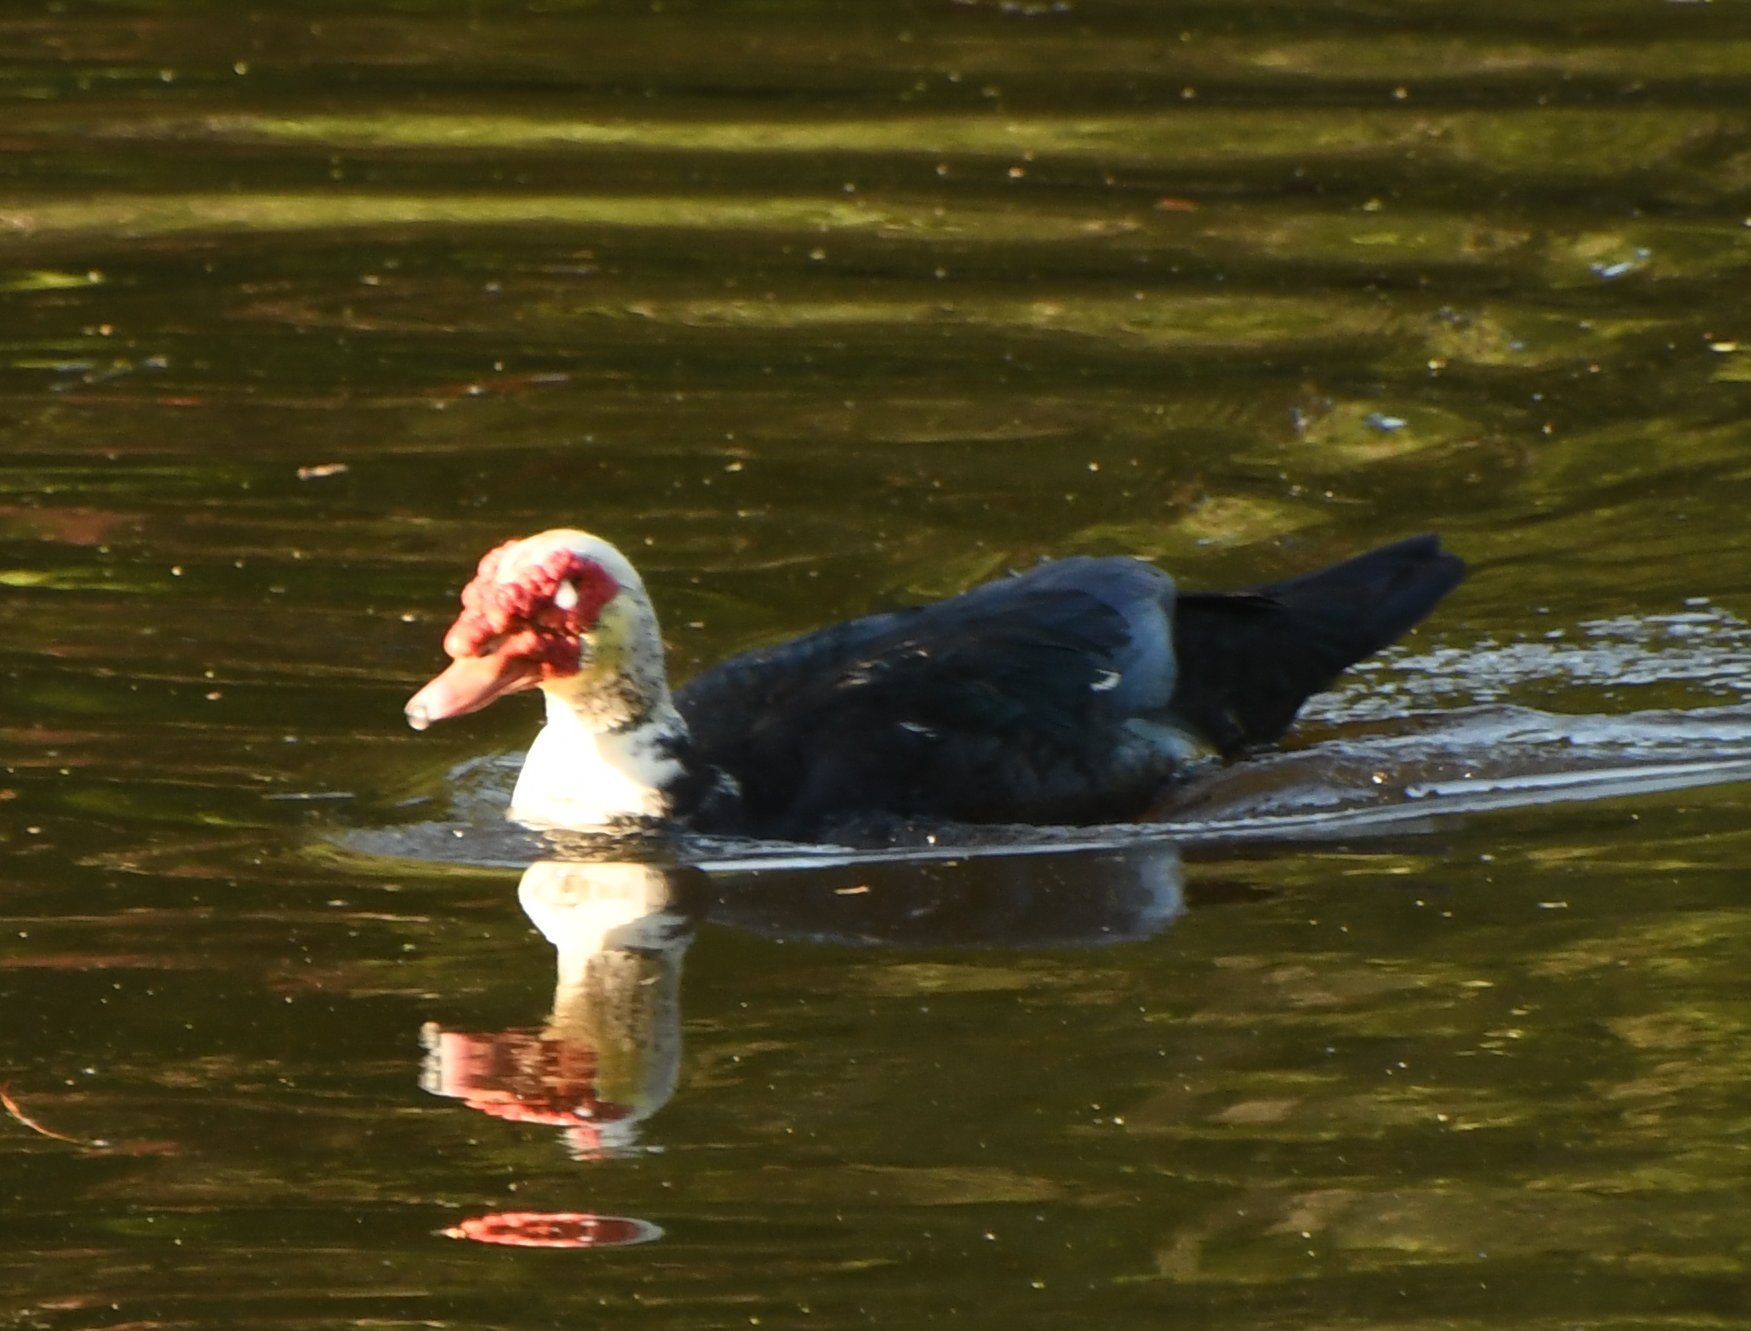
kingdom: Animalia
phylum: Chordata
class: Aves
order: Anseriformes
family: Anatidae
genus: Cairina
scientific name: Cairina moschata
